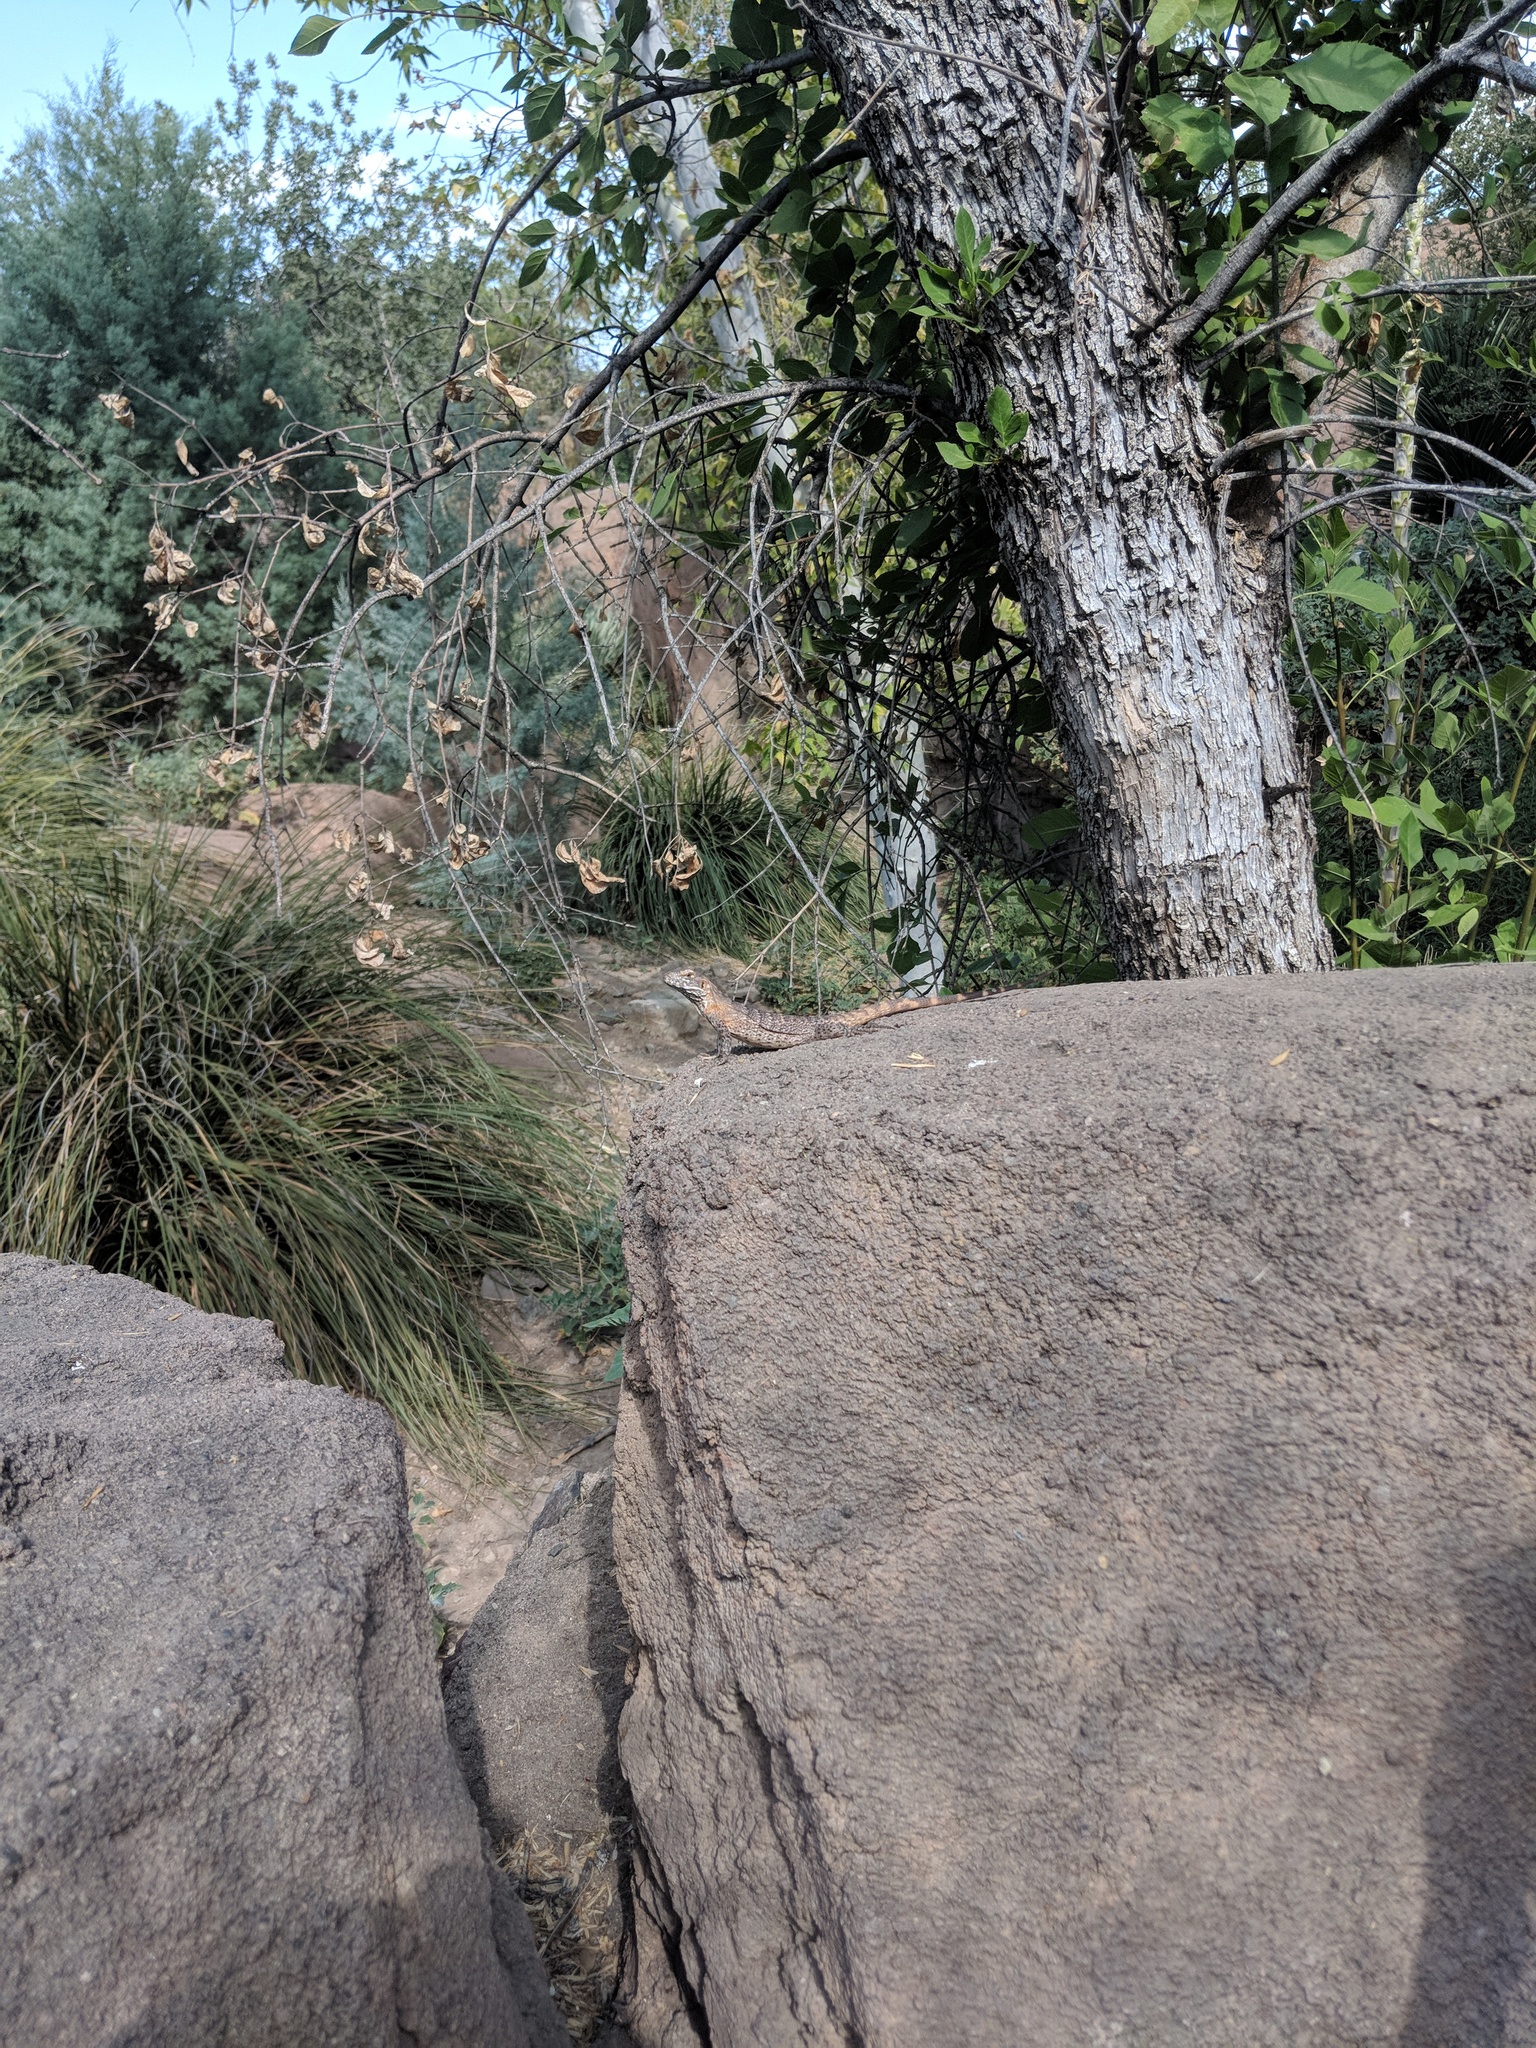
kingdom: Animalia
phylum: Chordata
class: Squamata
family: Iguanidae
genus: Ctenosaura
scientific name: Ctenosaura
